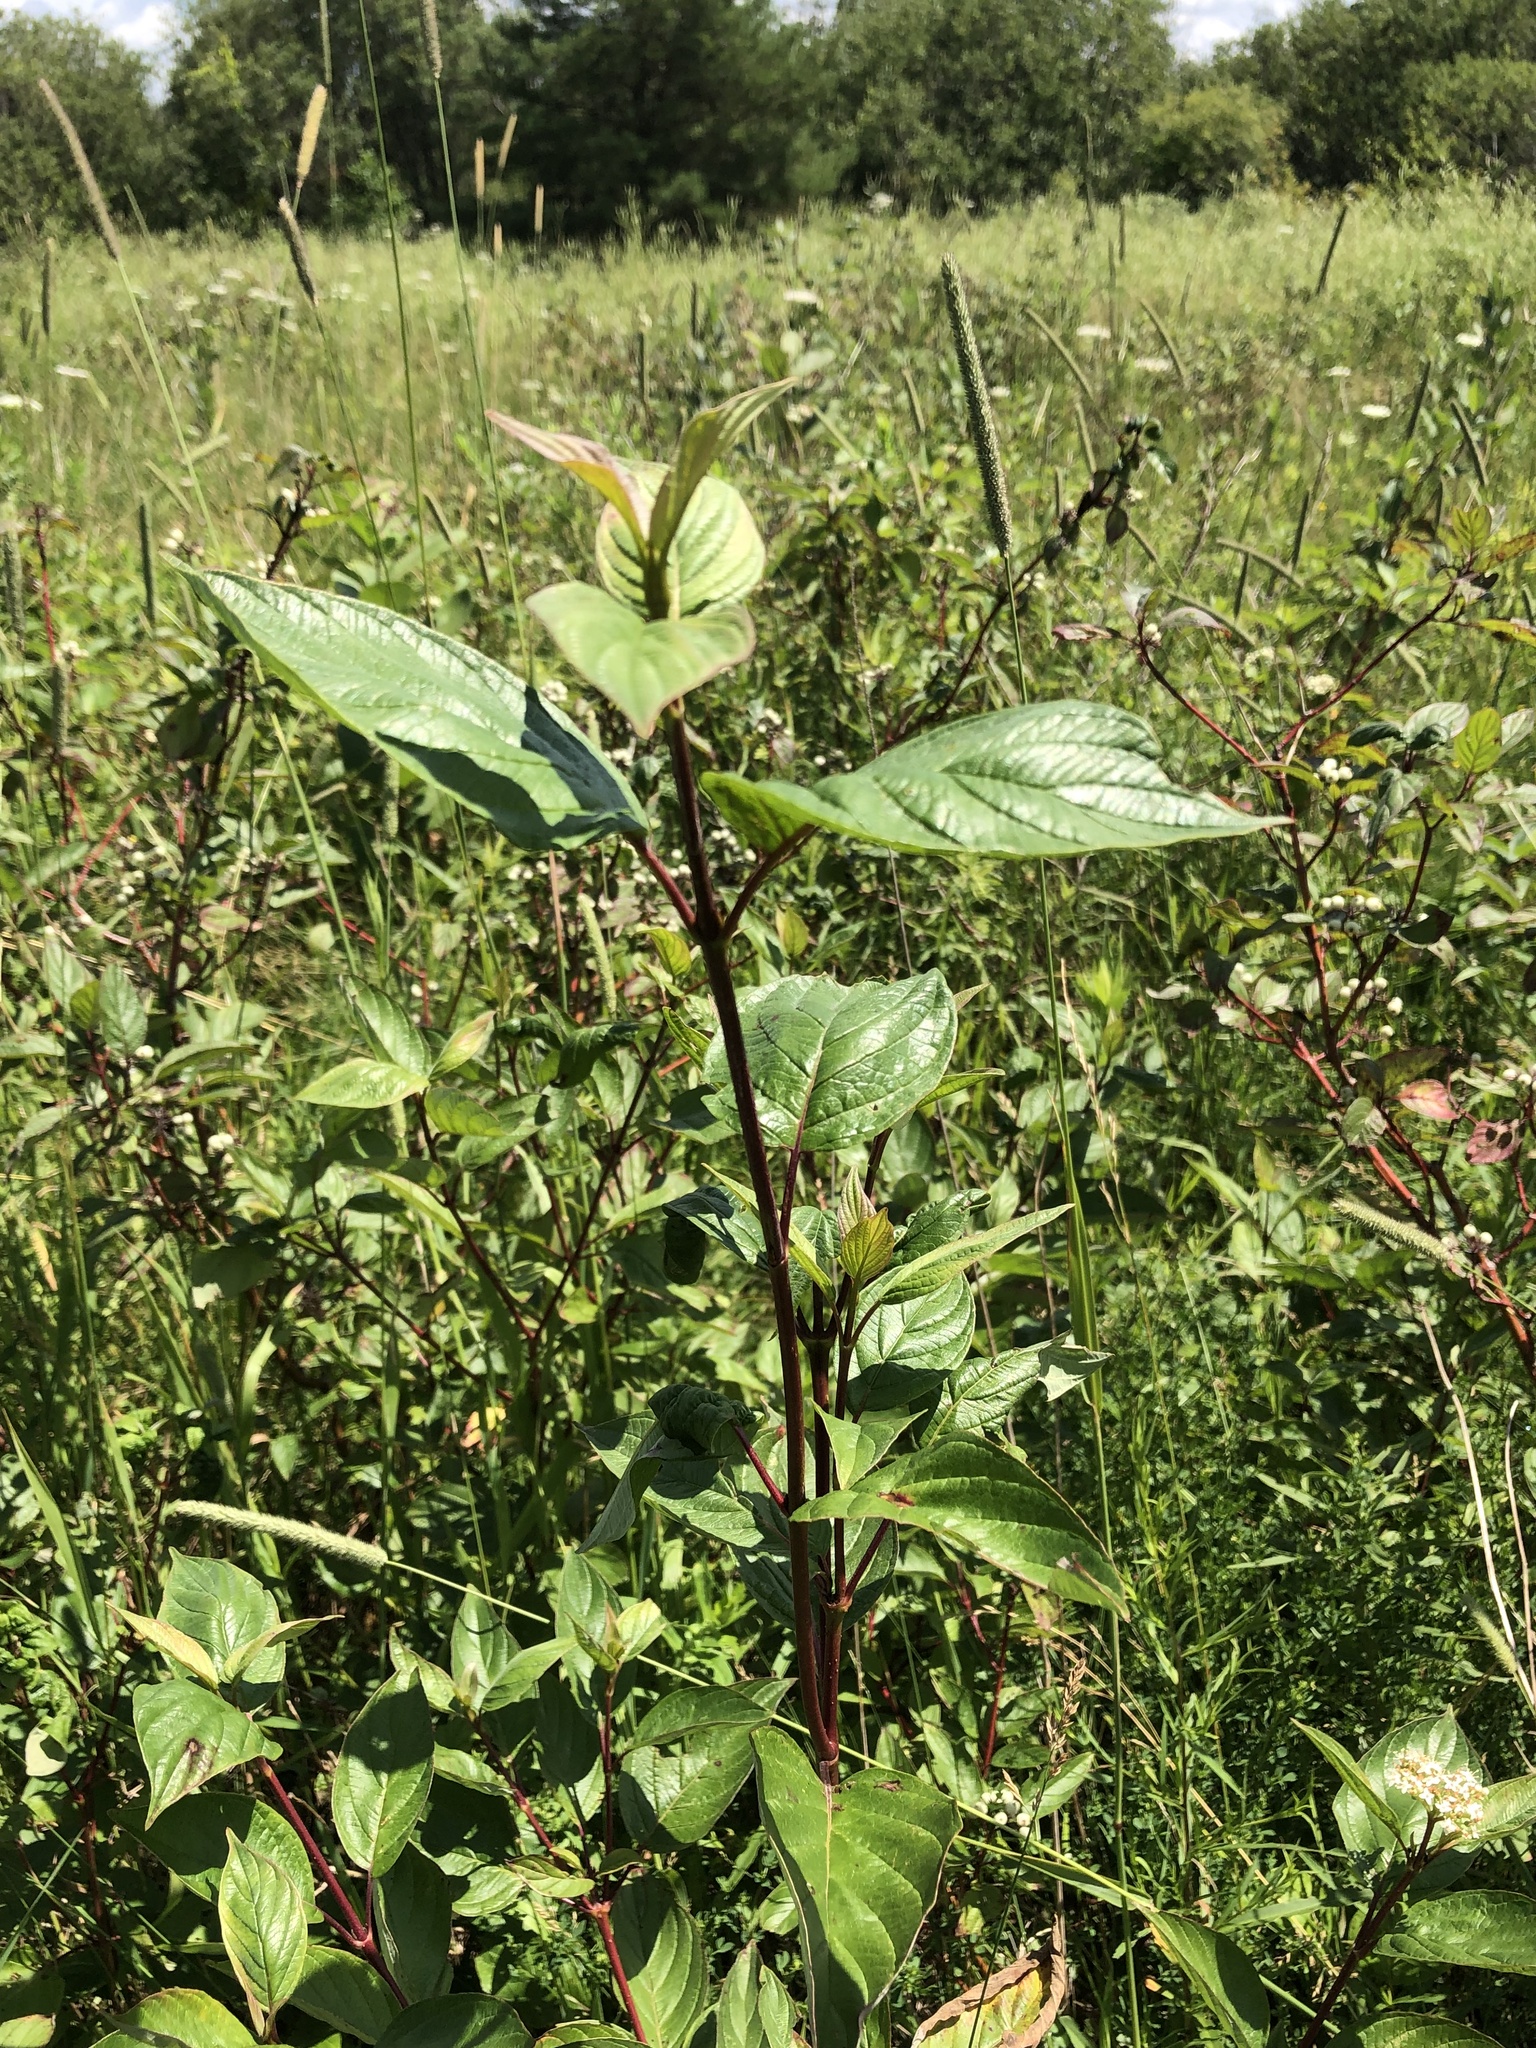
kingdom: Plantae
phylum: Tracheophyta
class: Magnoliopsida
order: Cornales
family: Cornaceae
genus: Cornus
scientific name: Cornus sericea
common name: Red-osier dogwood
